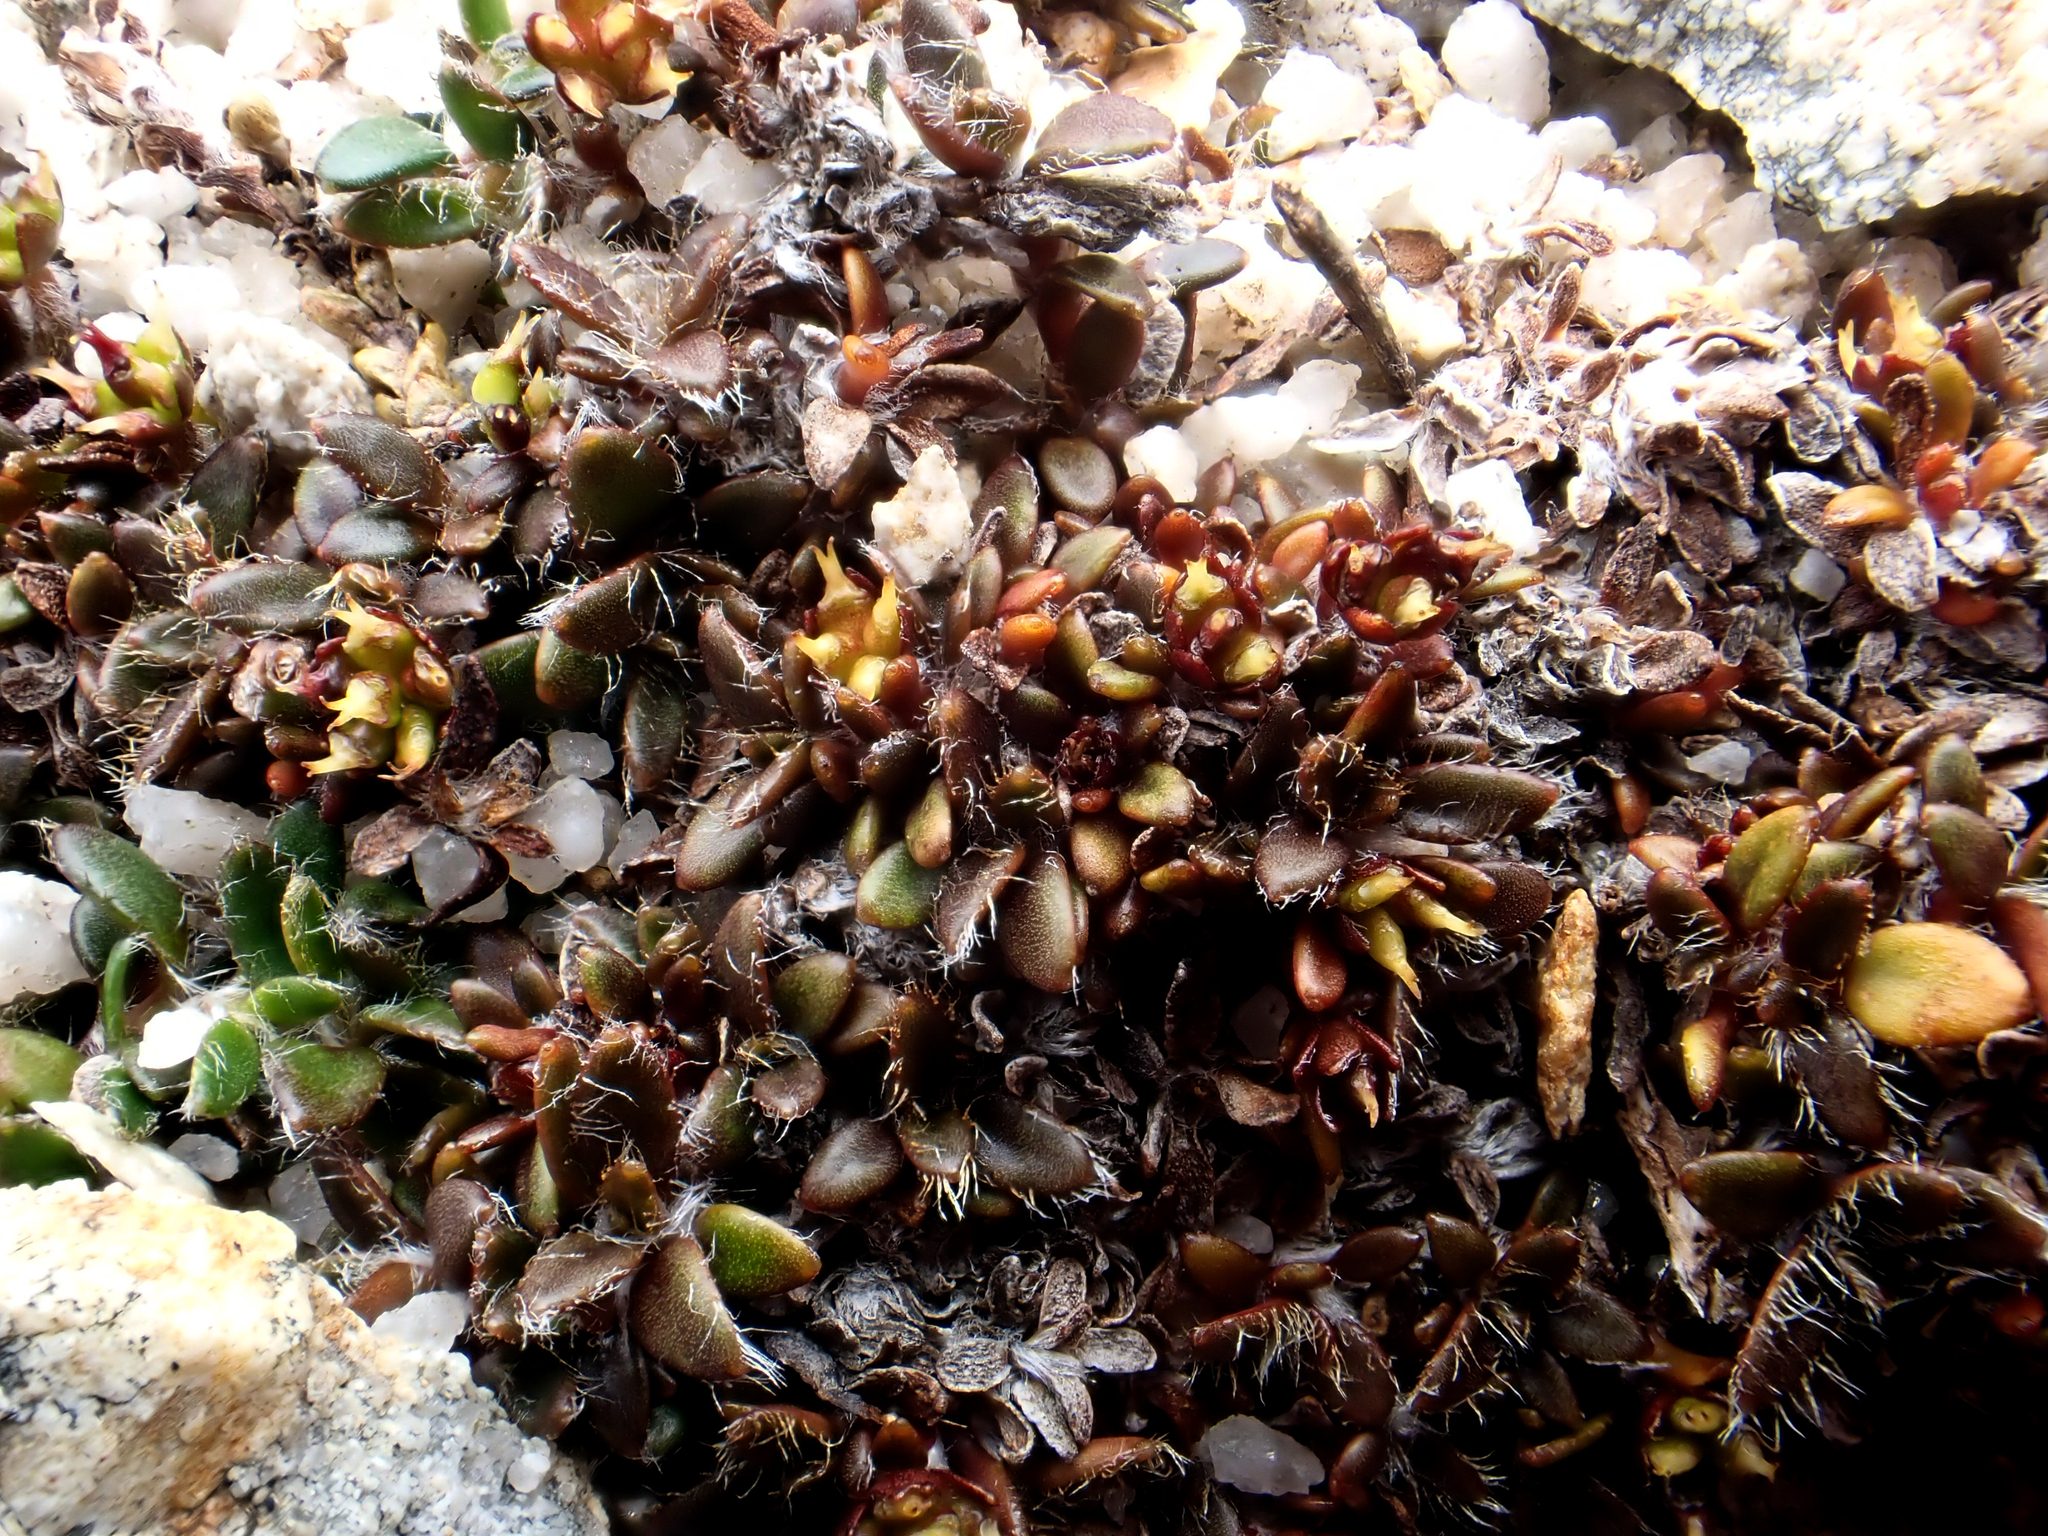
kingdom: Plantae
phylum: Tracheophyta
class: Magnoliopsida
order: Apiales
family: Apiaceae
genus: Actinotus
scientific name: Actinotus novae-zealandiae
